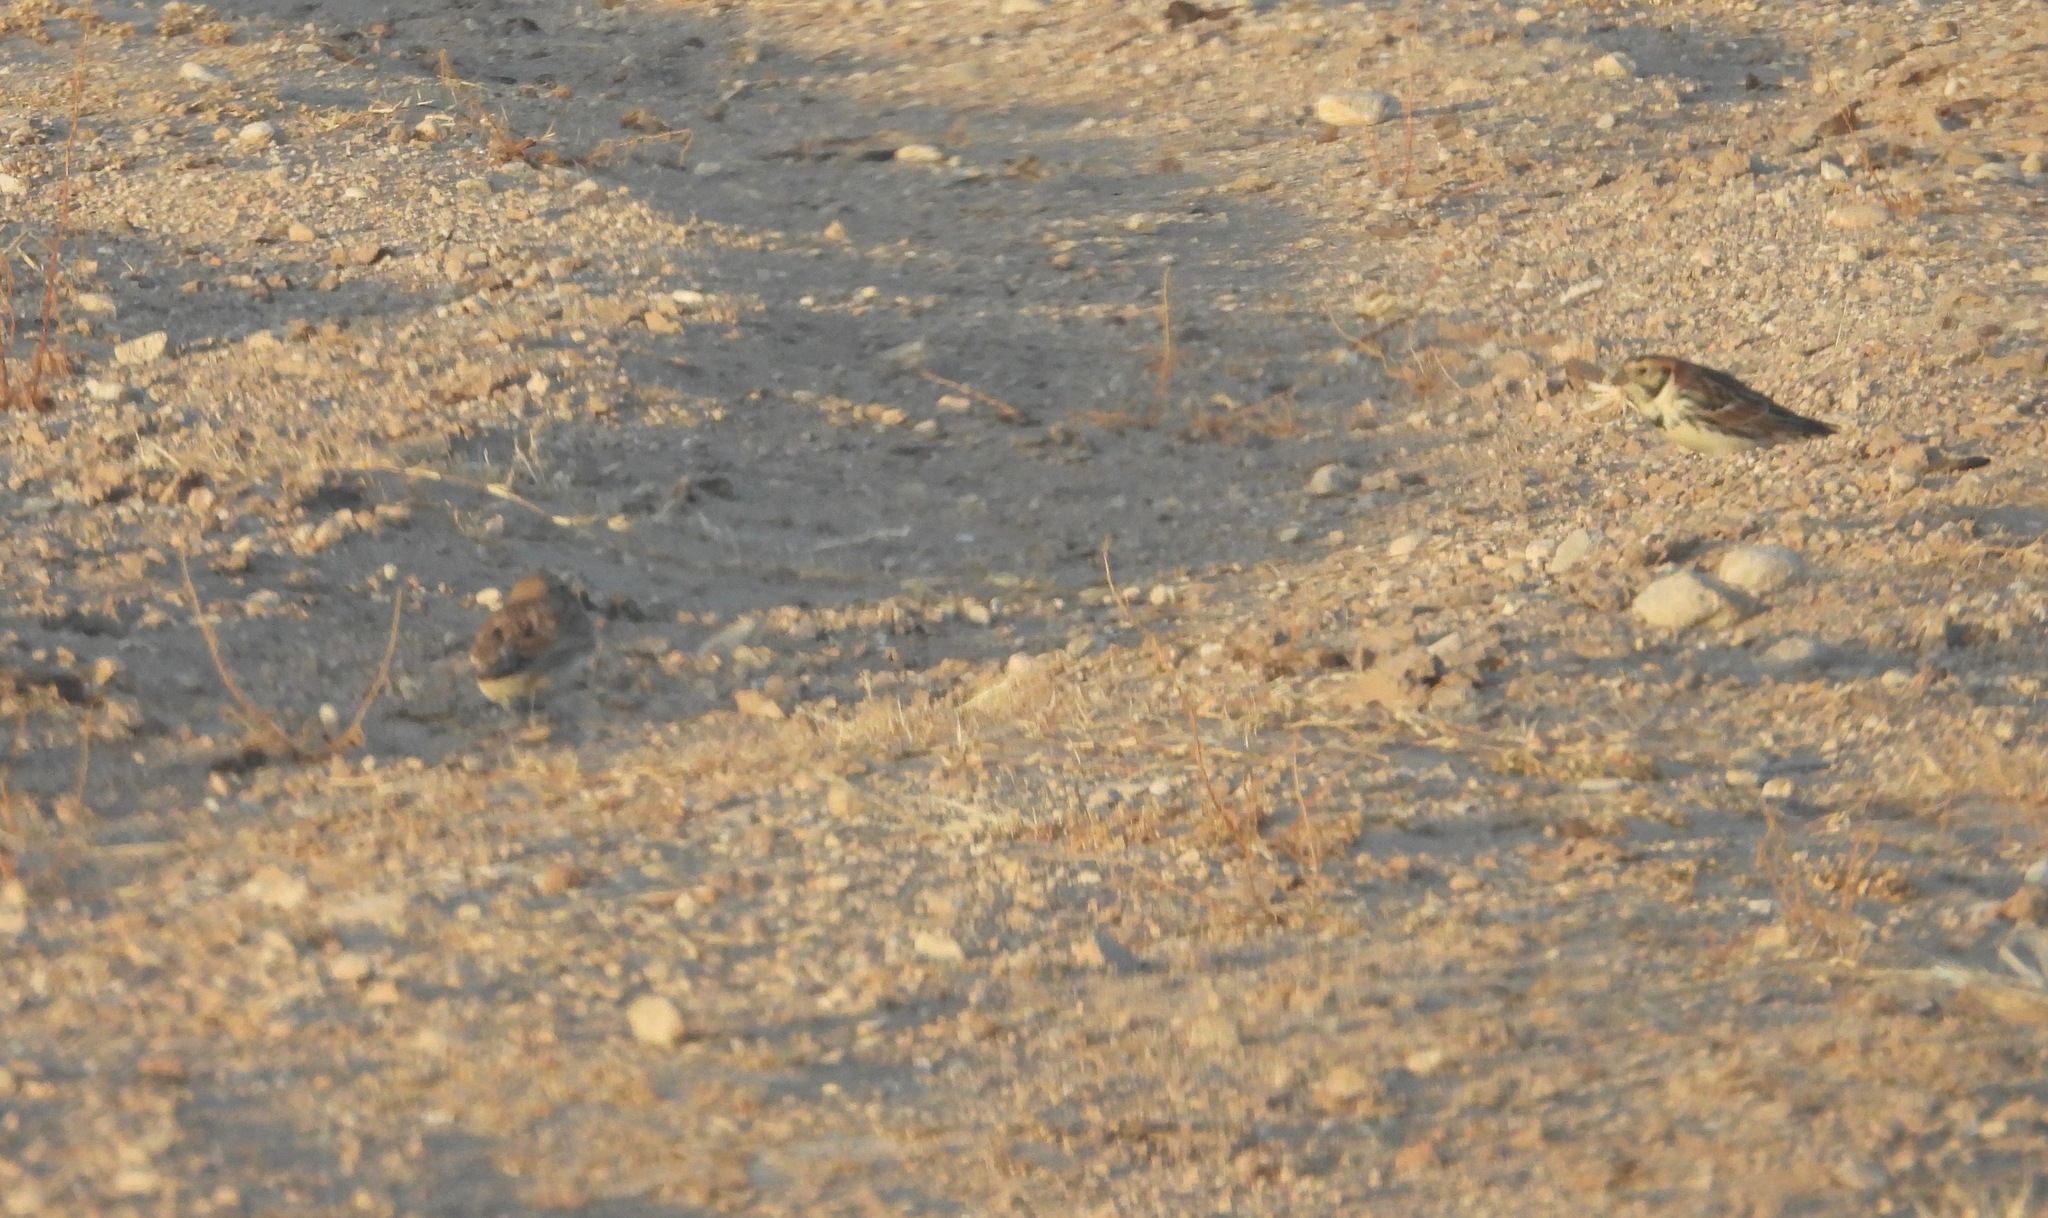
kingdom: Animalia
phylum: Chordata
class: Aves
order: Passeriformes
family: Calcariidae
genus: Calcarius
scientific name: Calcarius lapponicus
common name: Lapland longspur
